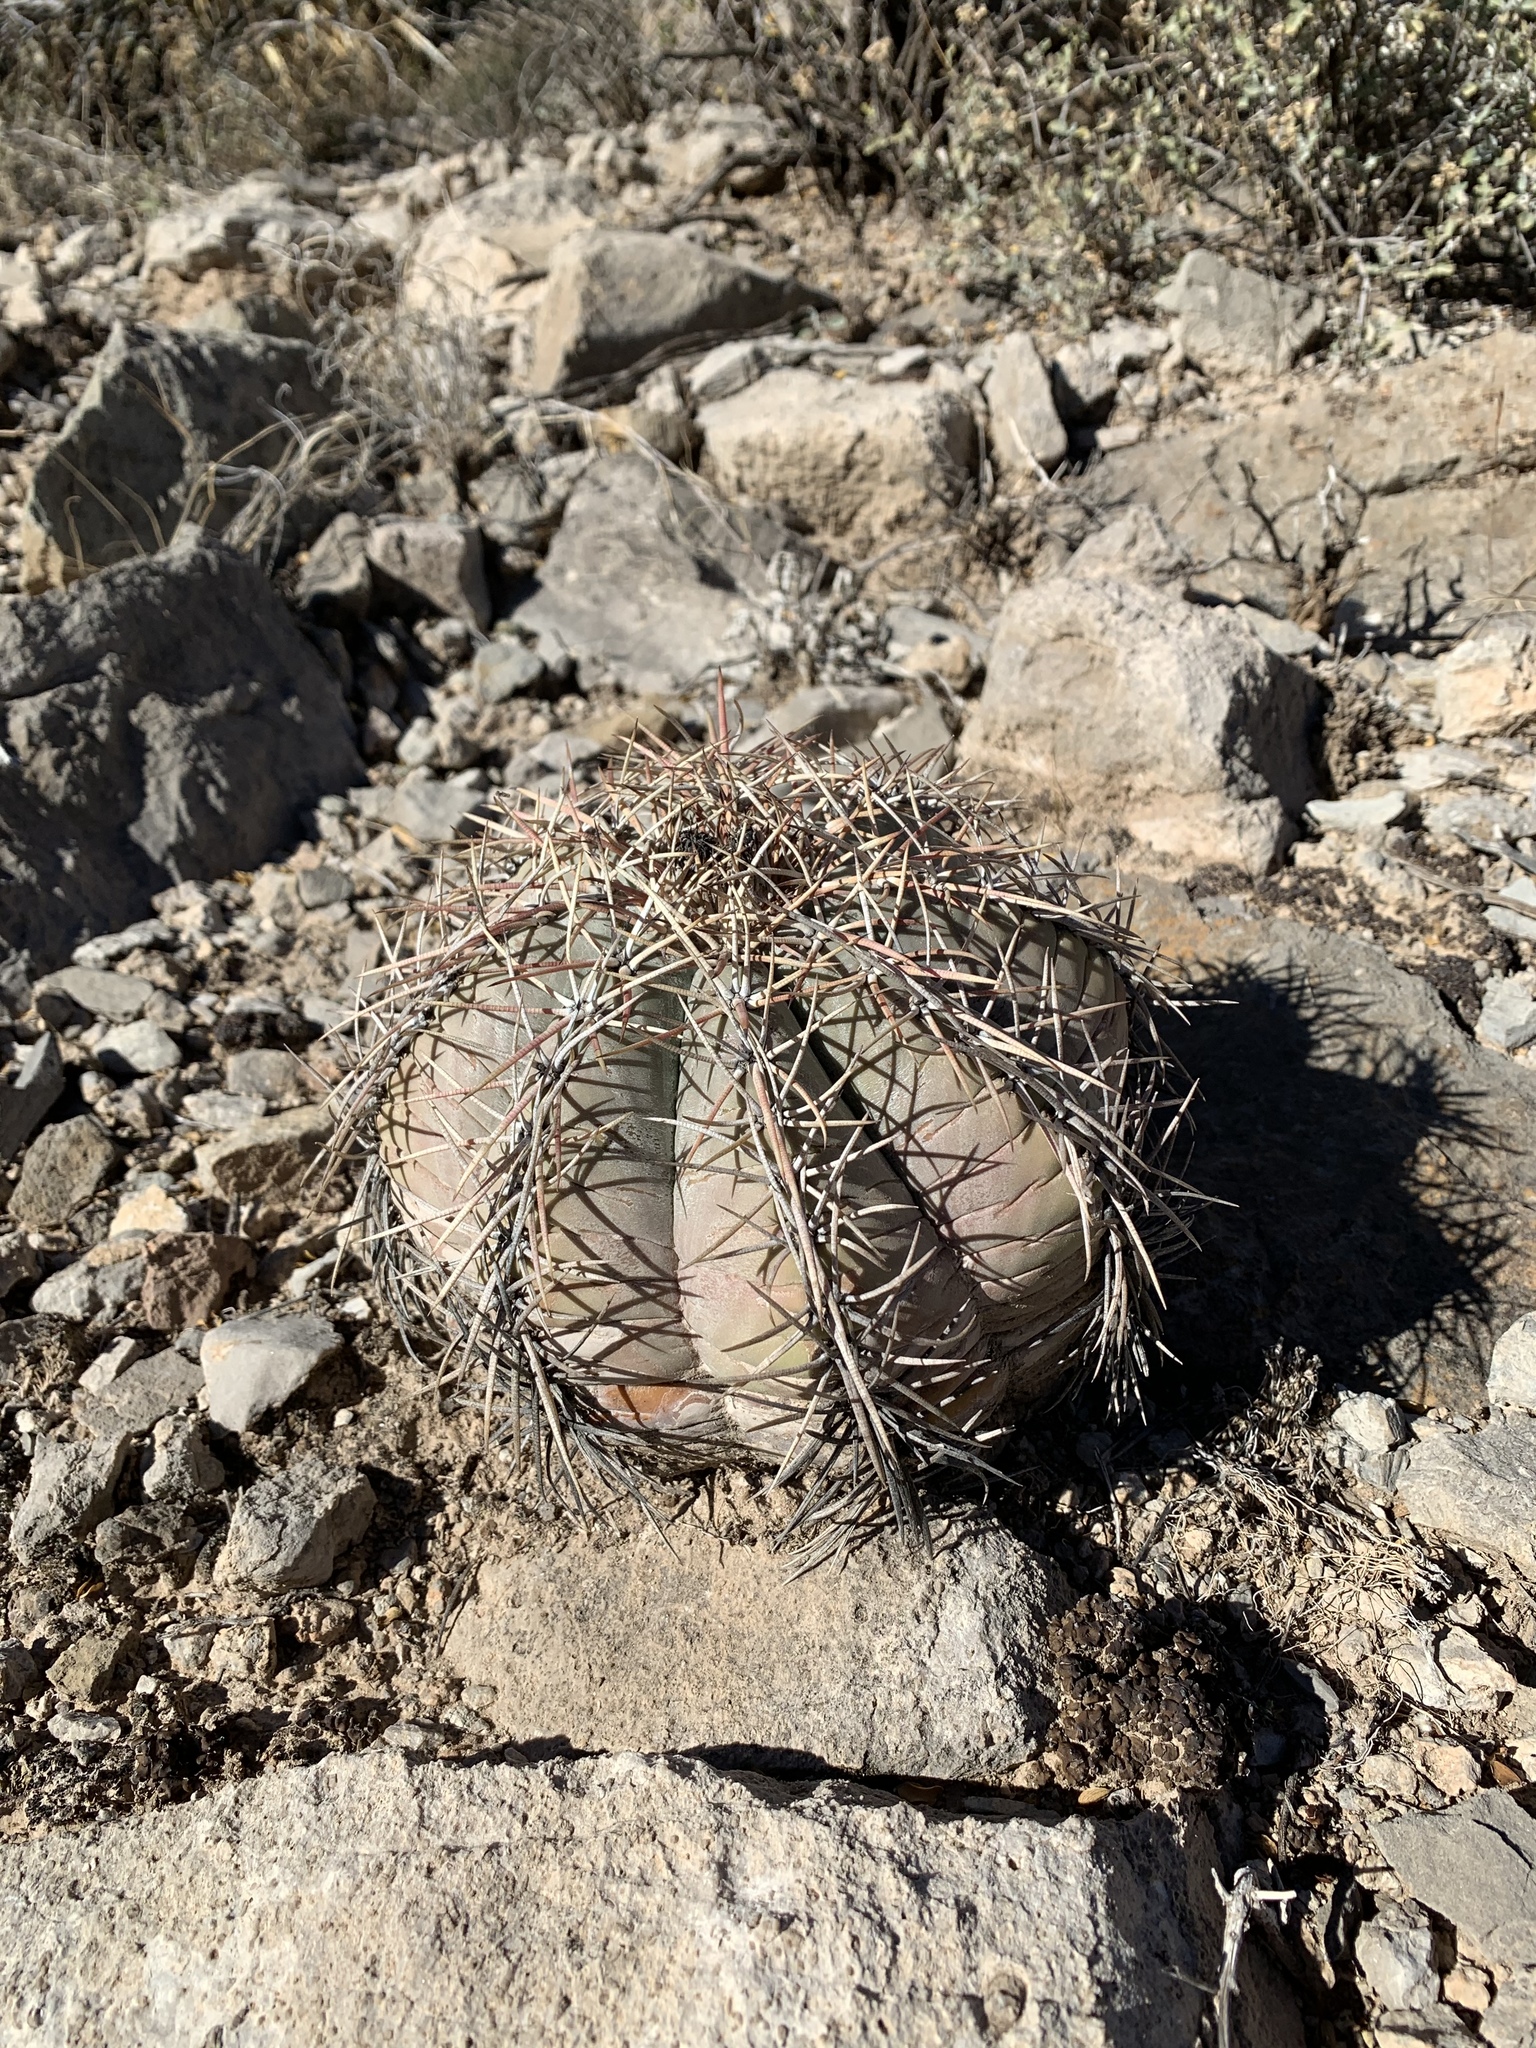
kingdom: Plantae
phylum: Tracheophyta
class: Magnoliopsida
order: Caryophyllales
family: Cactaceae
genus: Echinocactus
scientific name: Echinocactus horizonthalonius
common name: Devilshead
